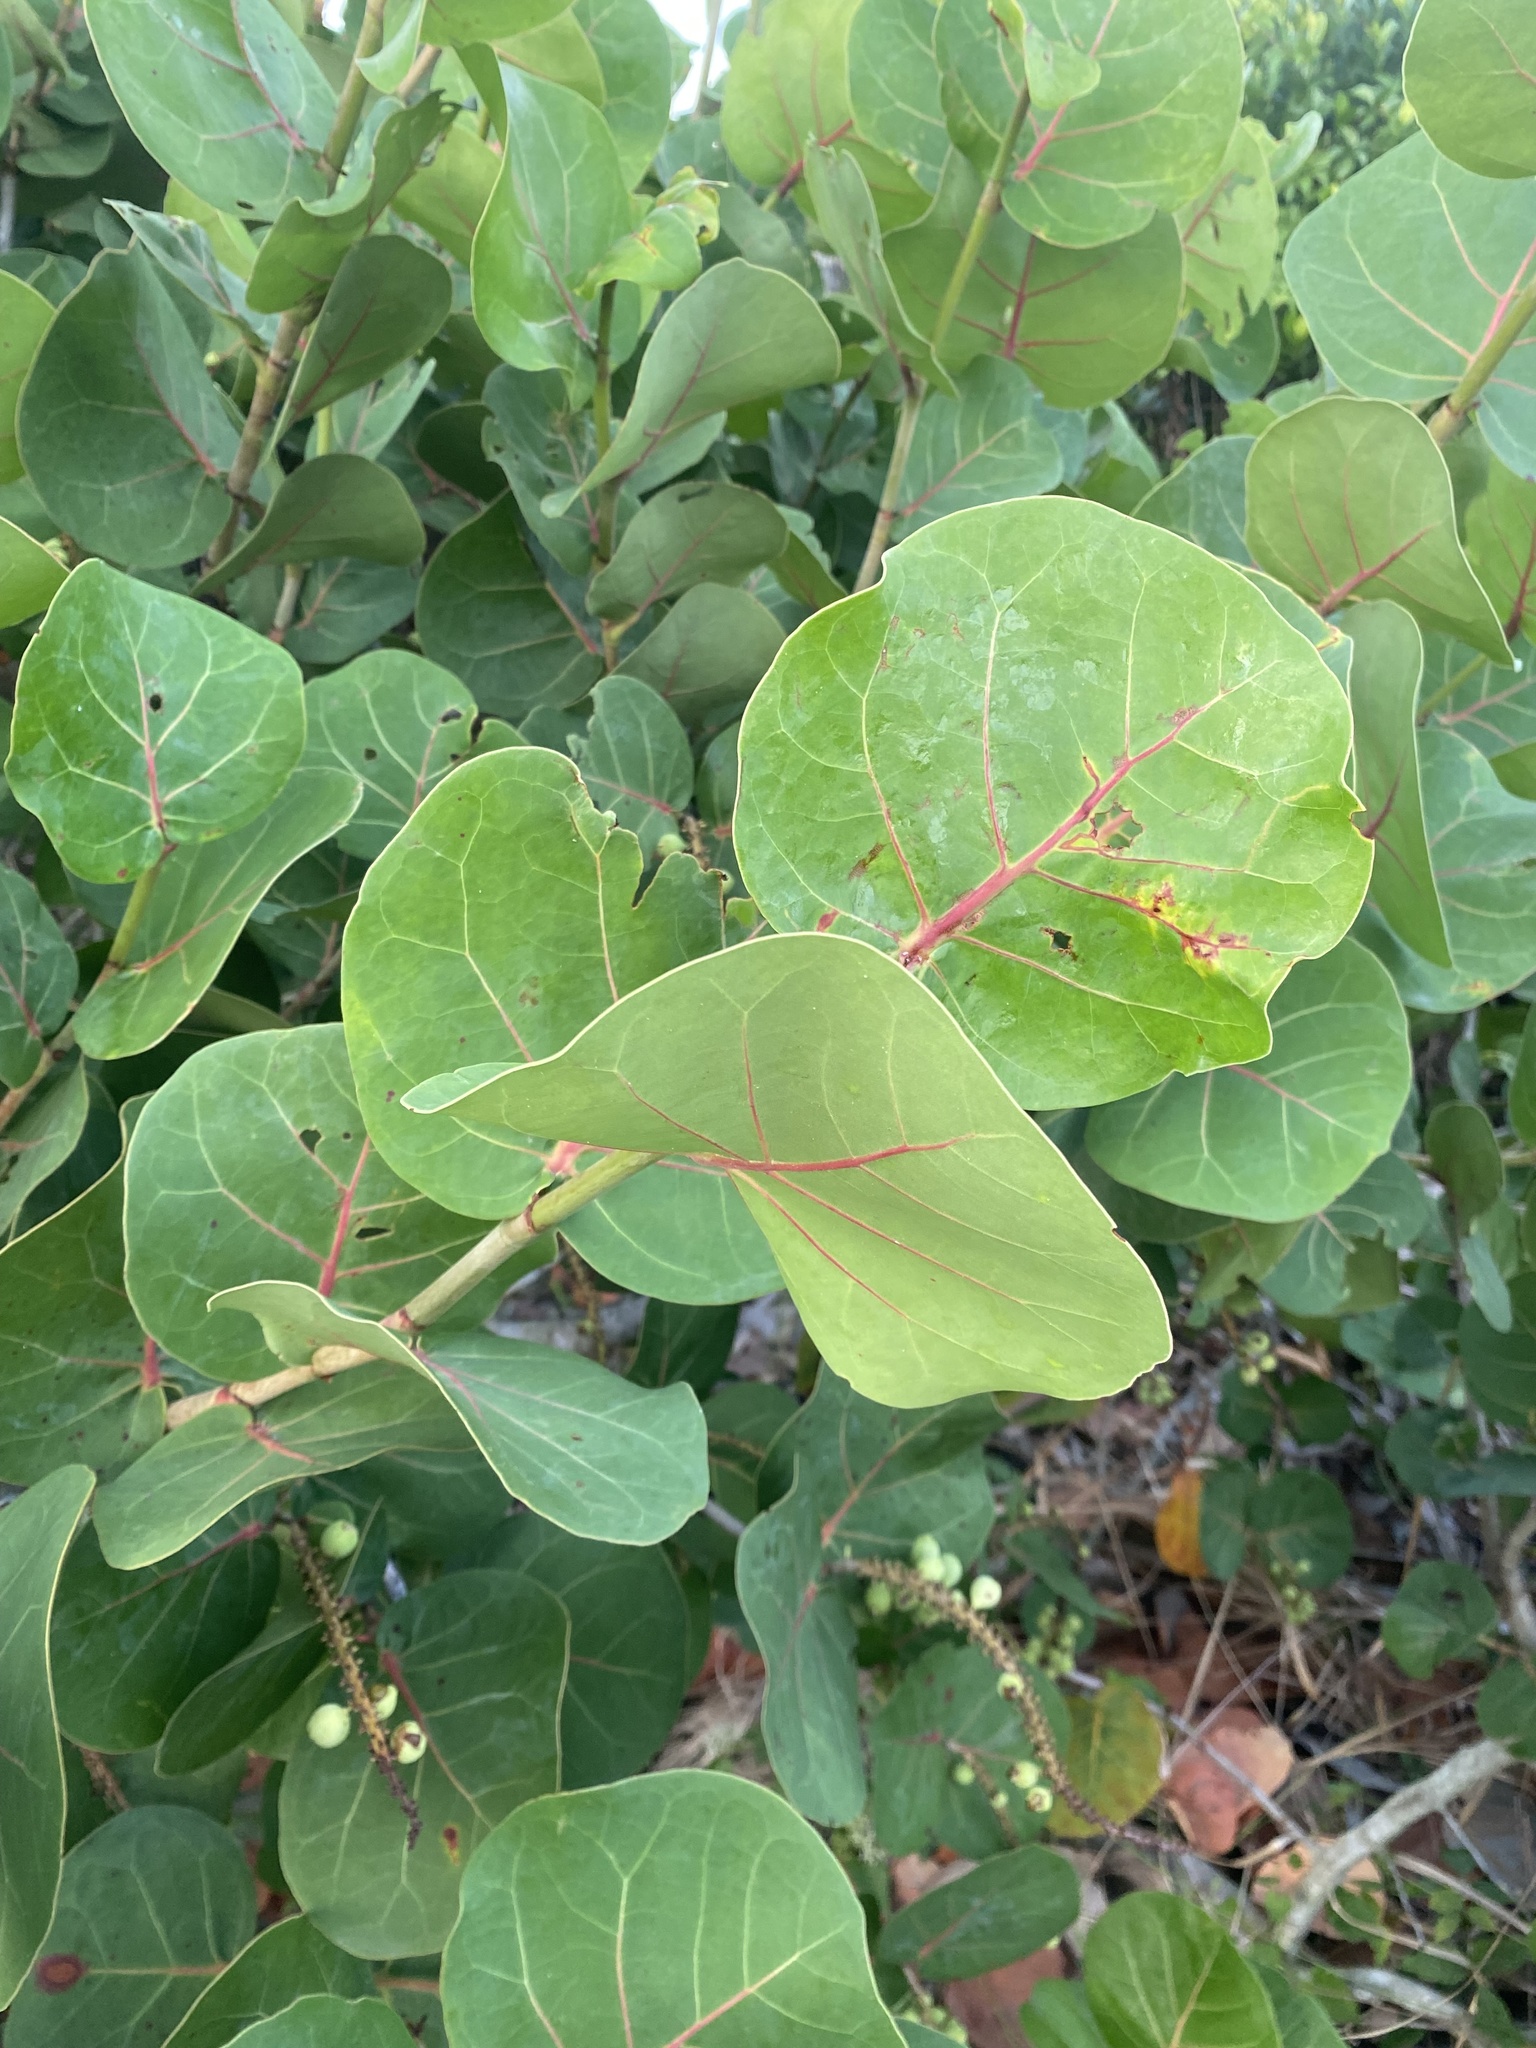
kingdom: Plantae
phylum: Tracheophyta
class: Magnoliopsida
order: Caryophyllales
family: Polygonaceae
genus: Coccoloba
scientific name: Coccoloba uvifera
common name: Seagrape
